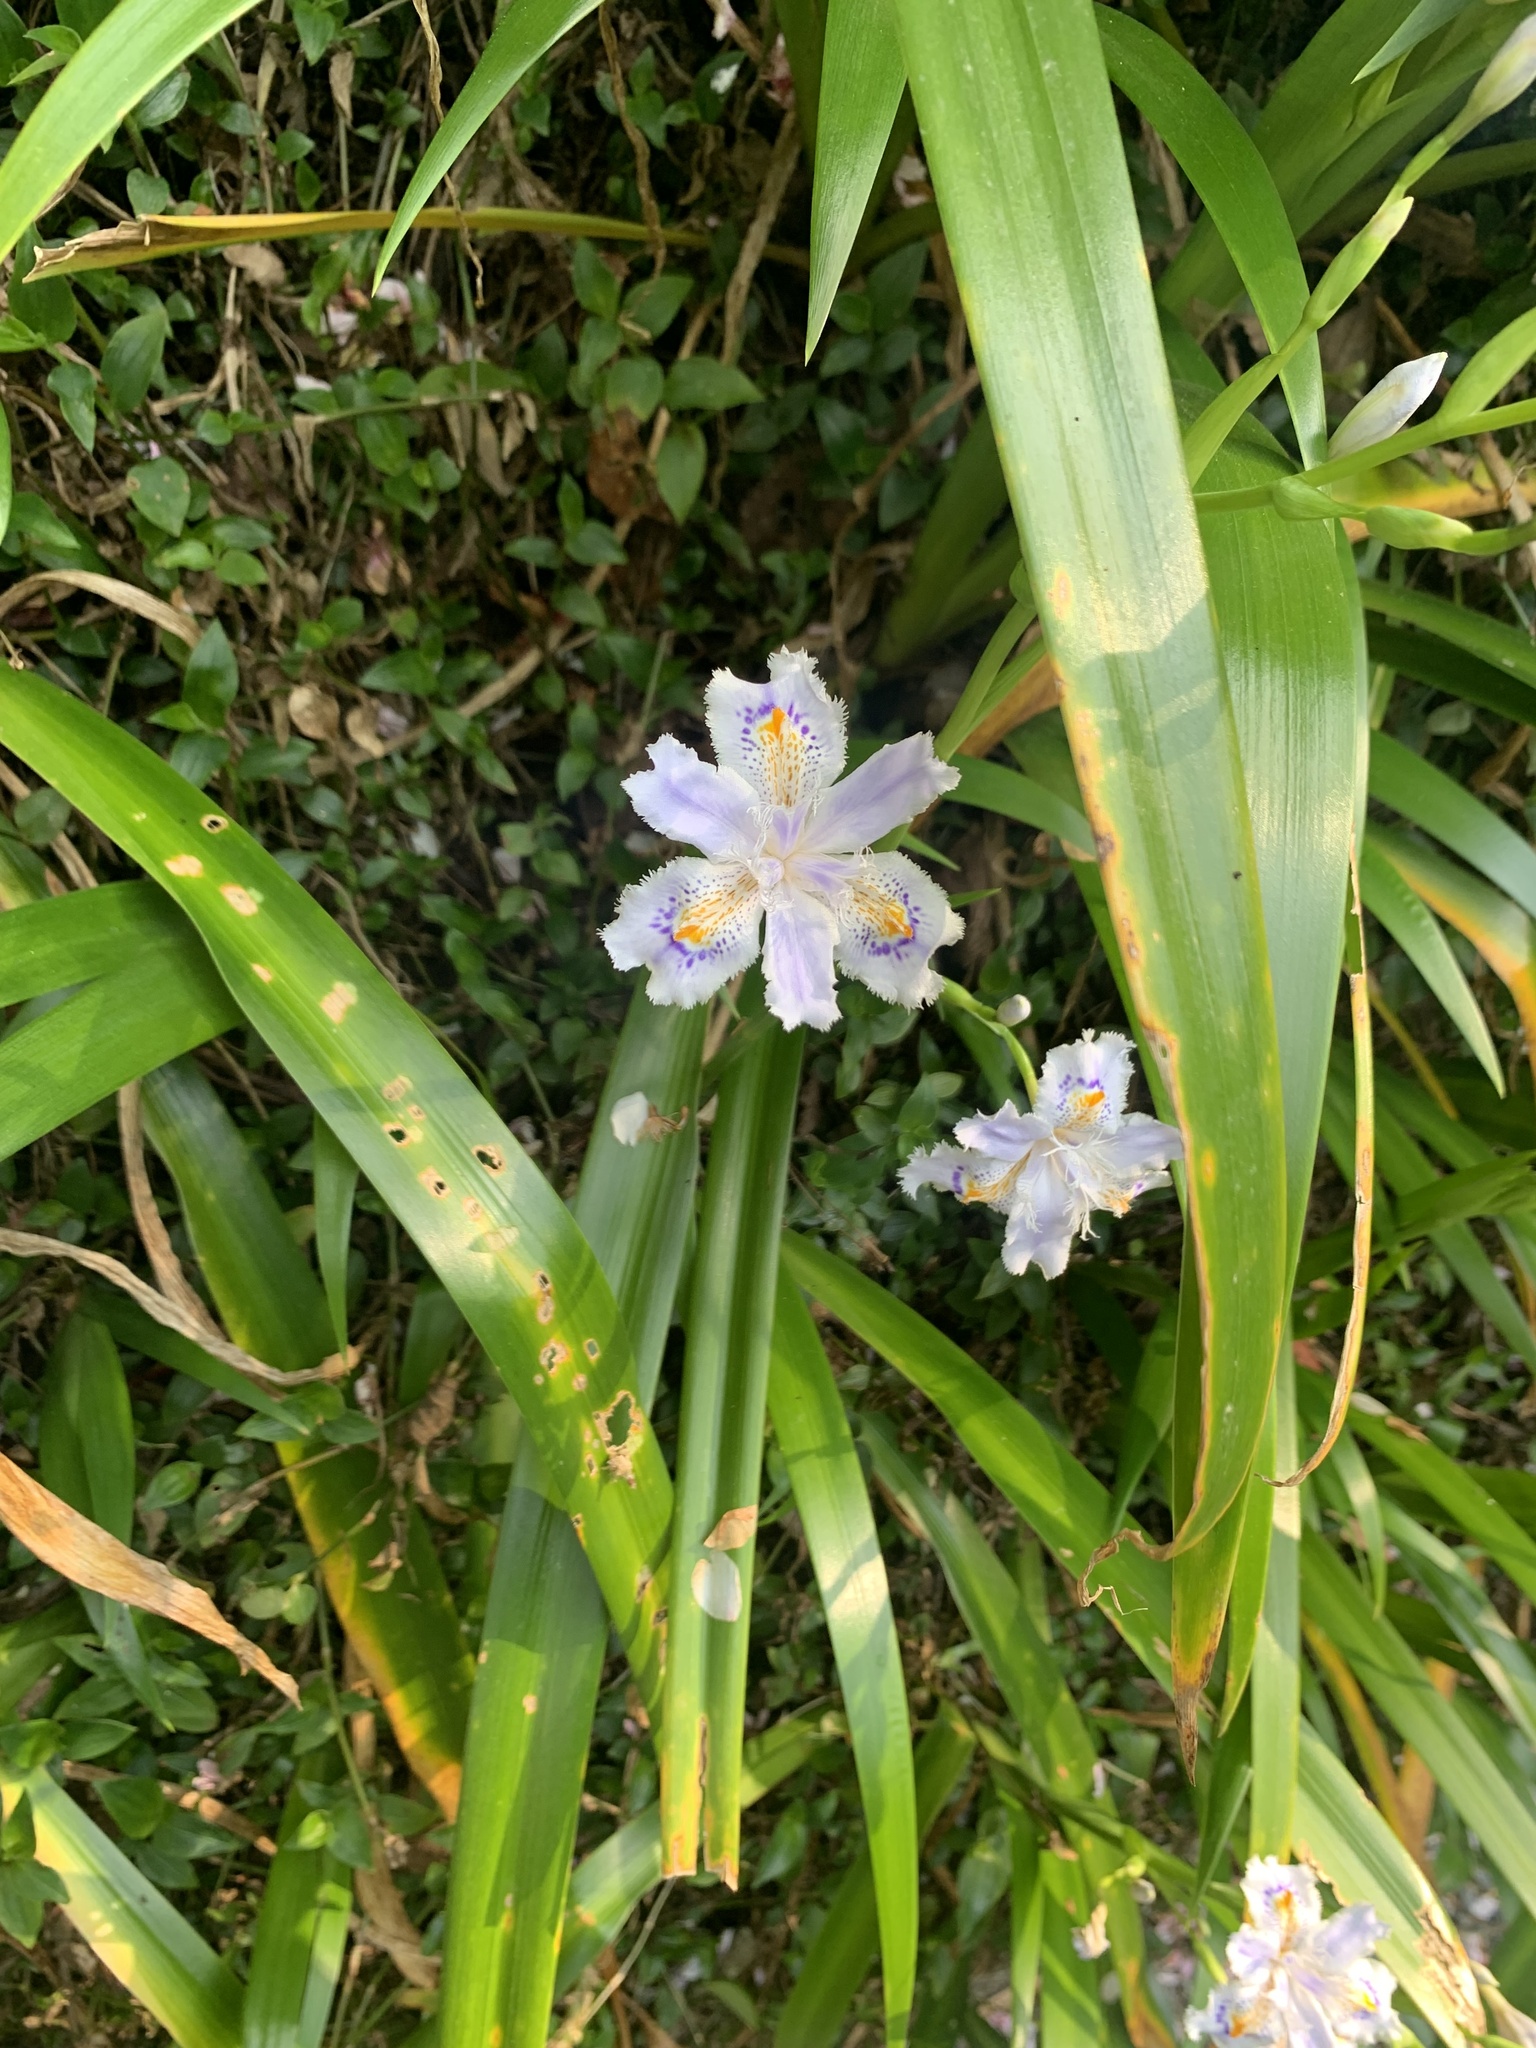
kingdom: Plantae
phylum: Tracheophyta
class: Liliopsida
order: Asparagales
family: Iridaceae
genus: Iris
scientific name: Iris japonica
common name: Butterfly-flower
